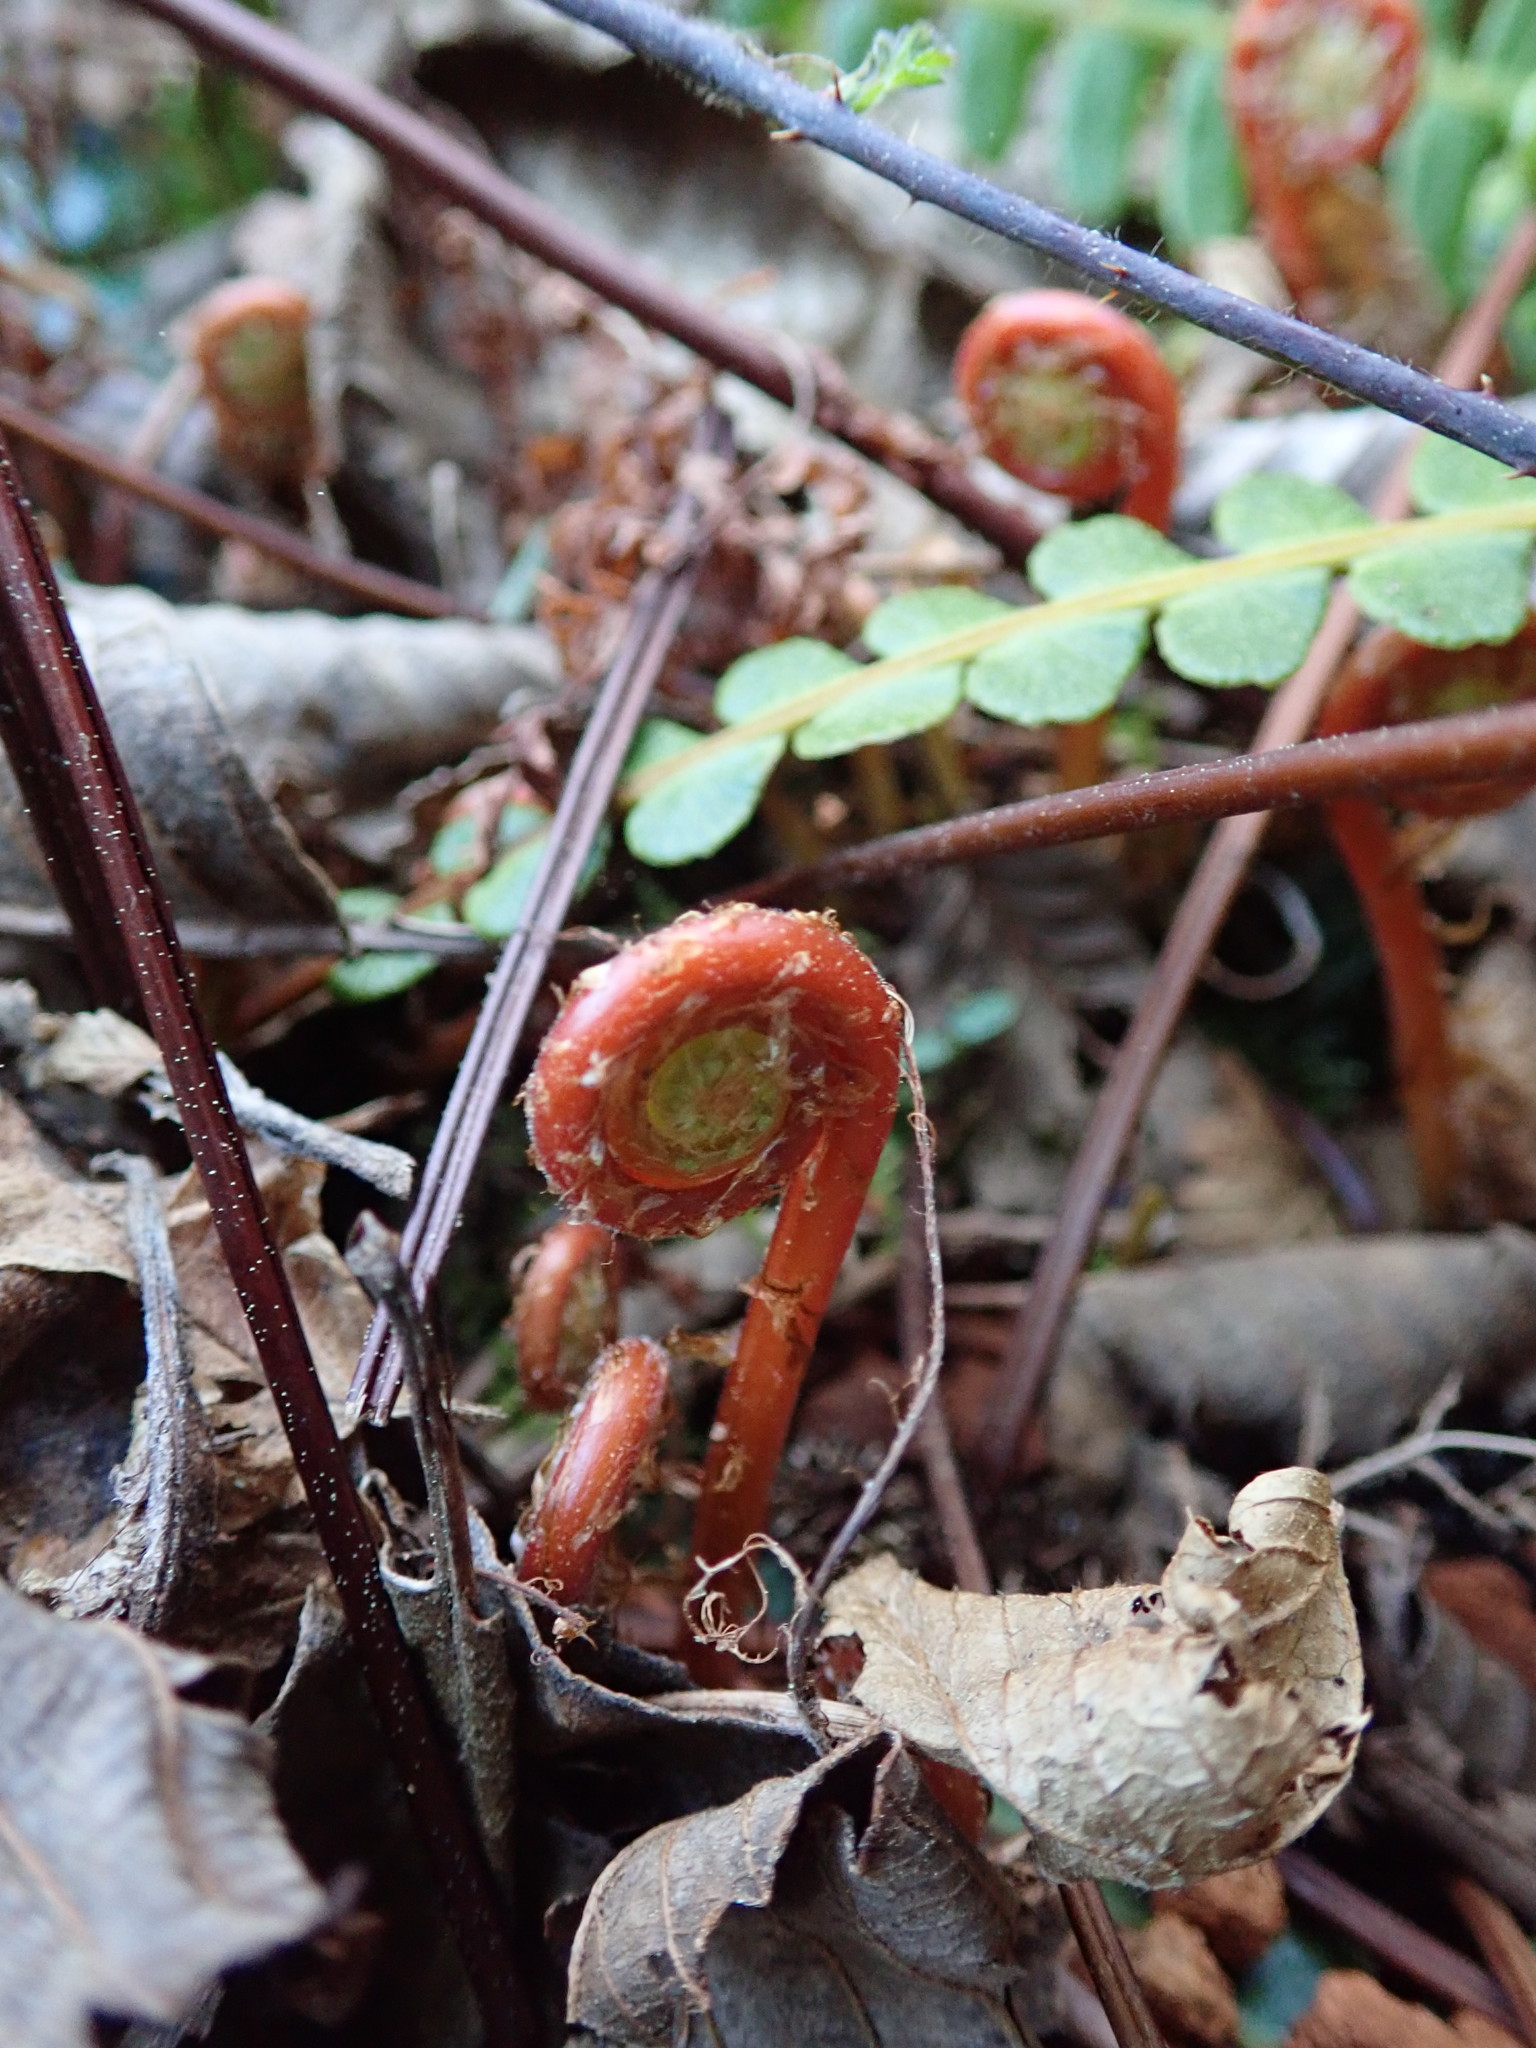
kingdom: Plantae
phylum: Tracheophyta
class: Polypodiopsida
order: Polypodiales
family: Blechnaceae
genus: Struthiopteris
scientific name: Struthiopteris spicant
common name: Deer fern
